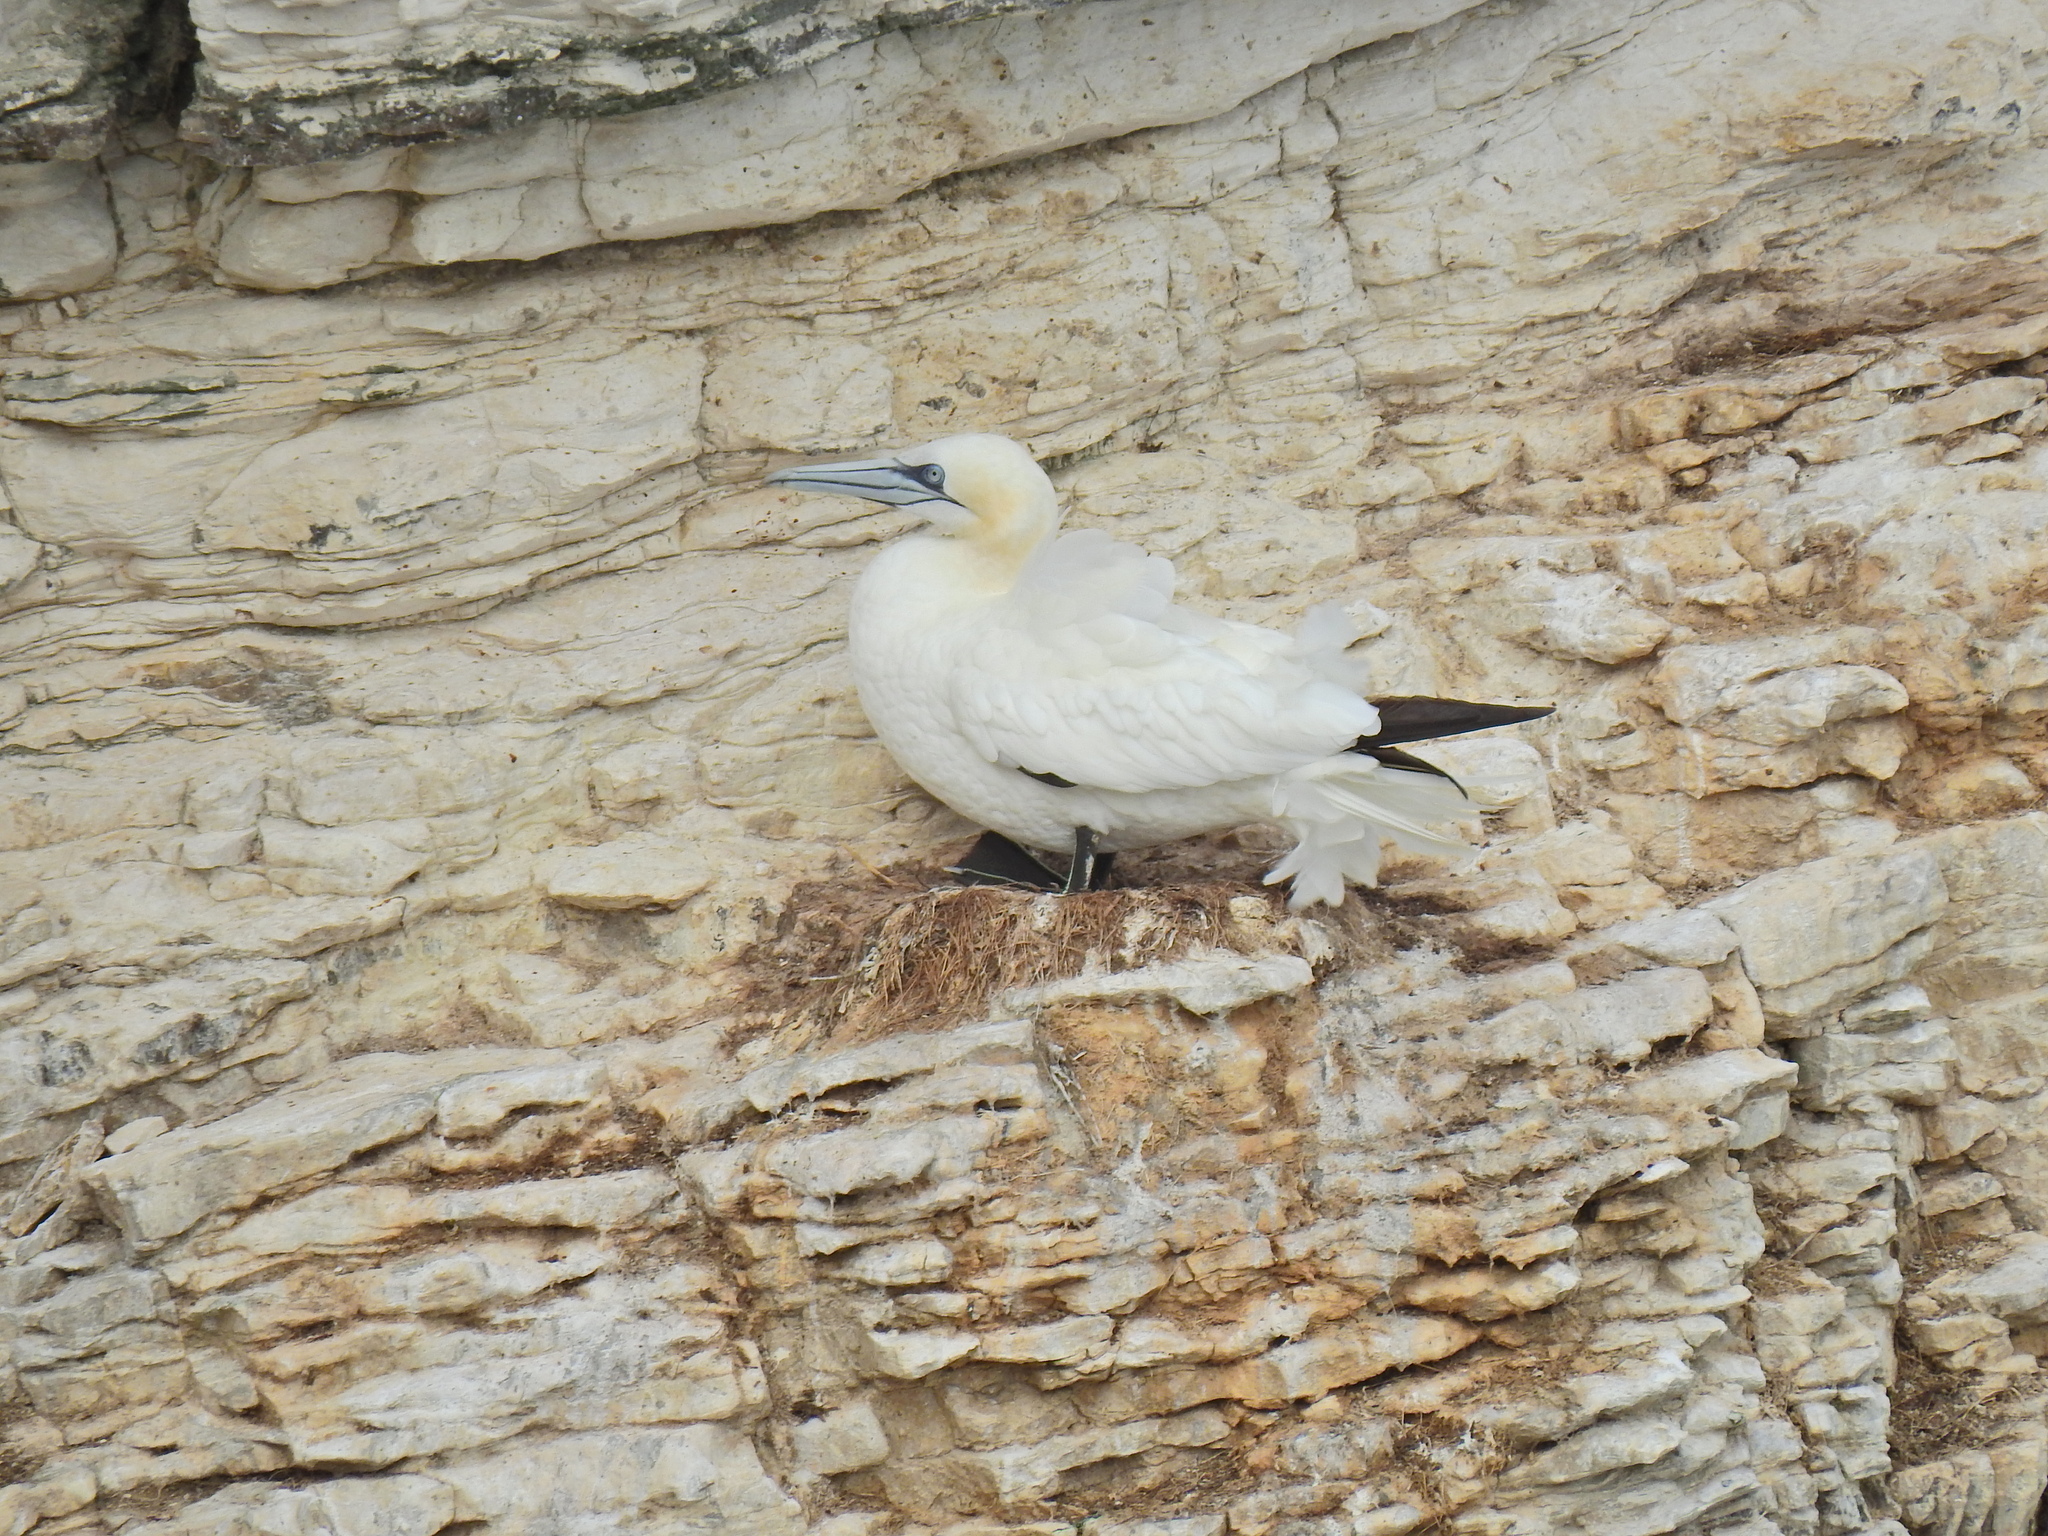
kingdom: Animalia
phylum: Chordata
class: Aves
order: Suliformes
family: Sulidae
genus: Morus
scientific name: Morus bassanus
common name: Northern gannet
